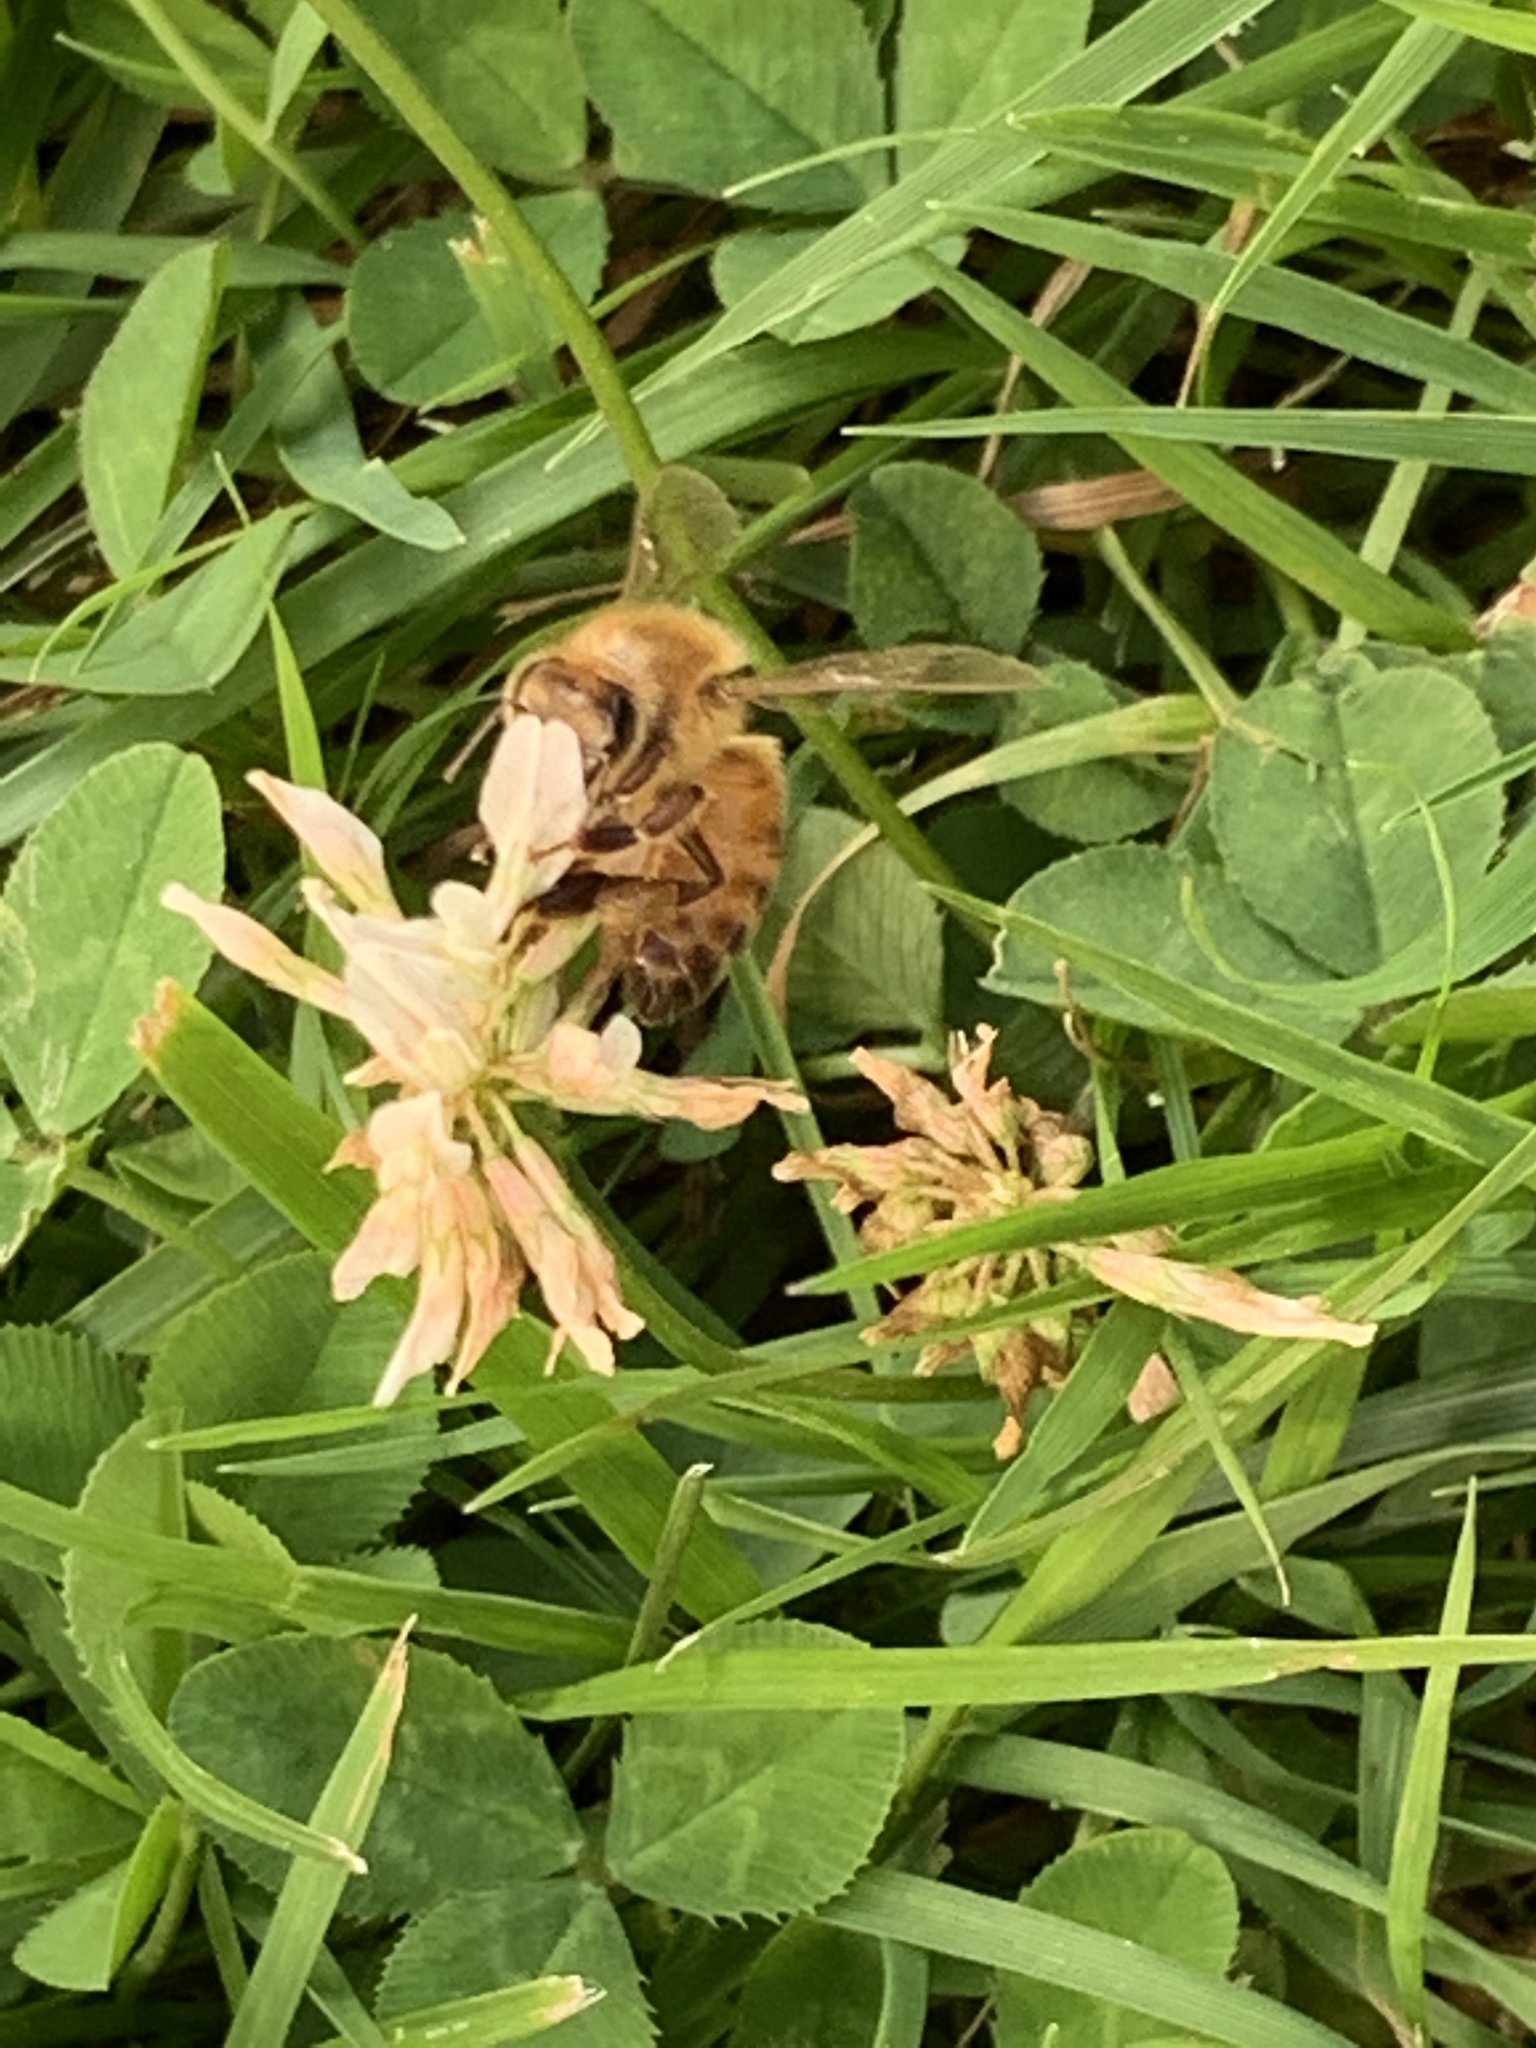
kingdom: Animalia
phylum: Arthropoda
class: Insecta
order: Hymenoptera
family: Apidae
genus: Apis
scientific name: Apis mellifera
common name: Honey bee
